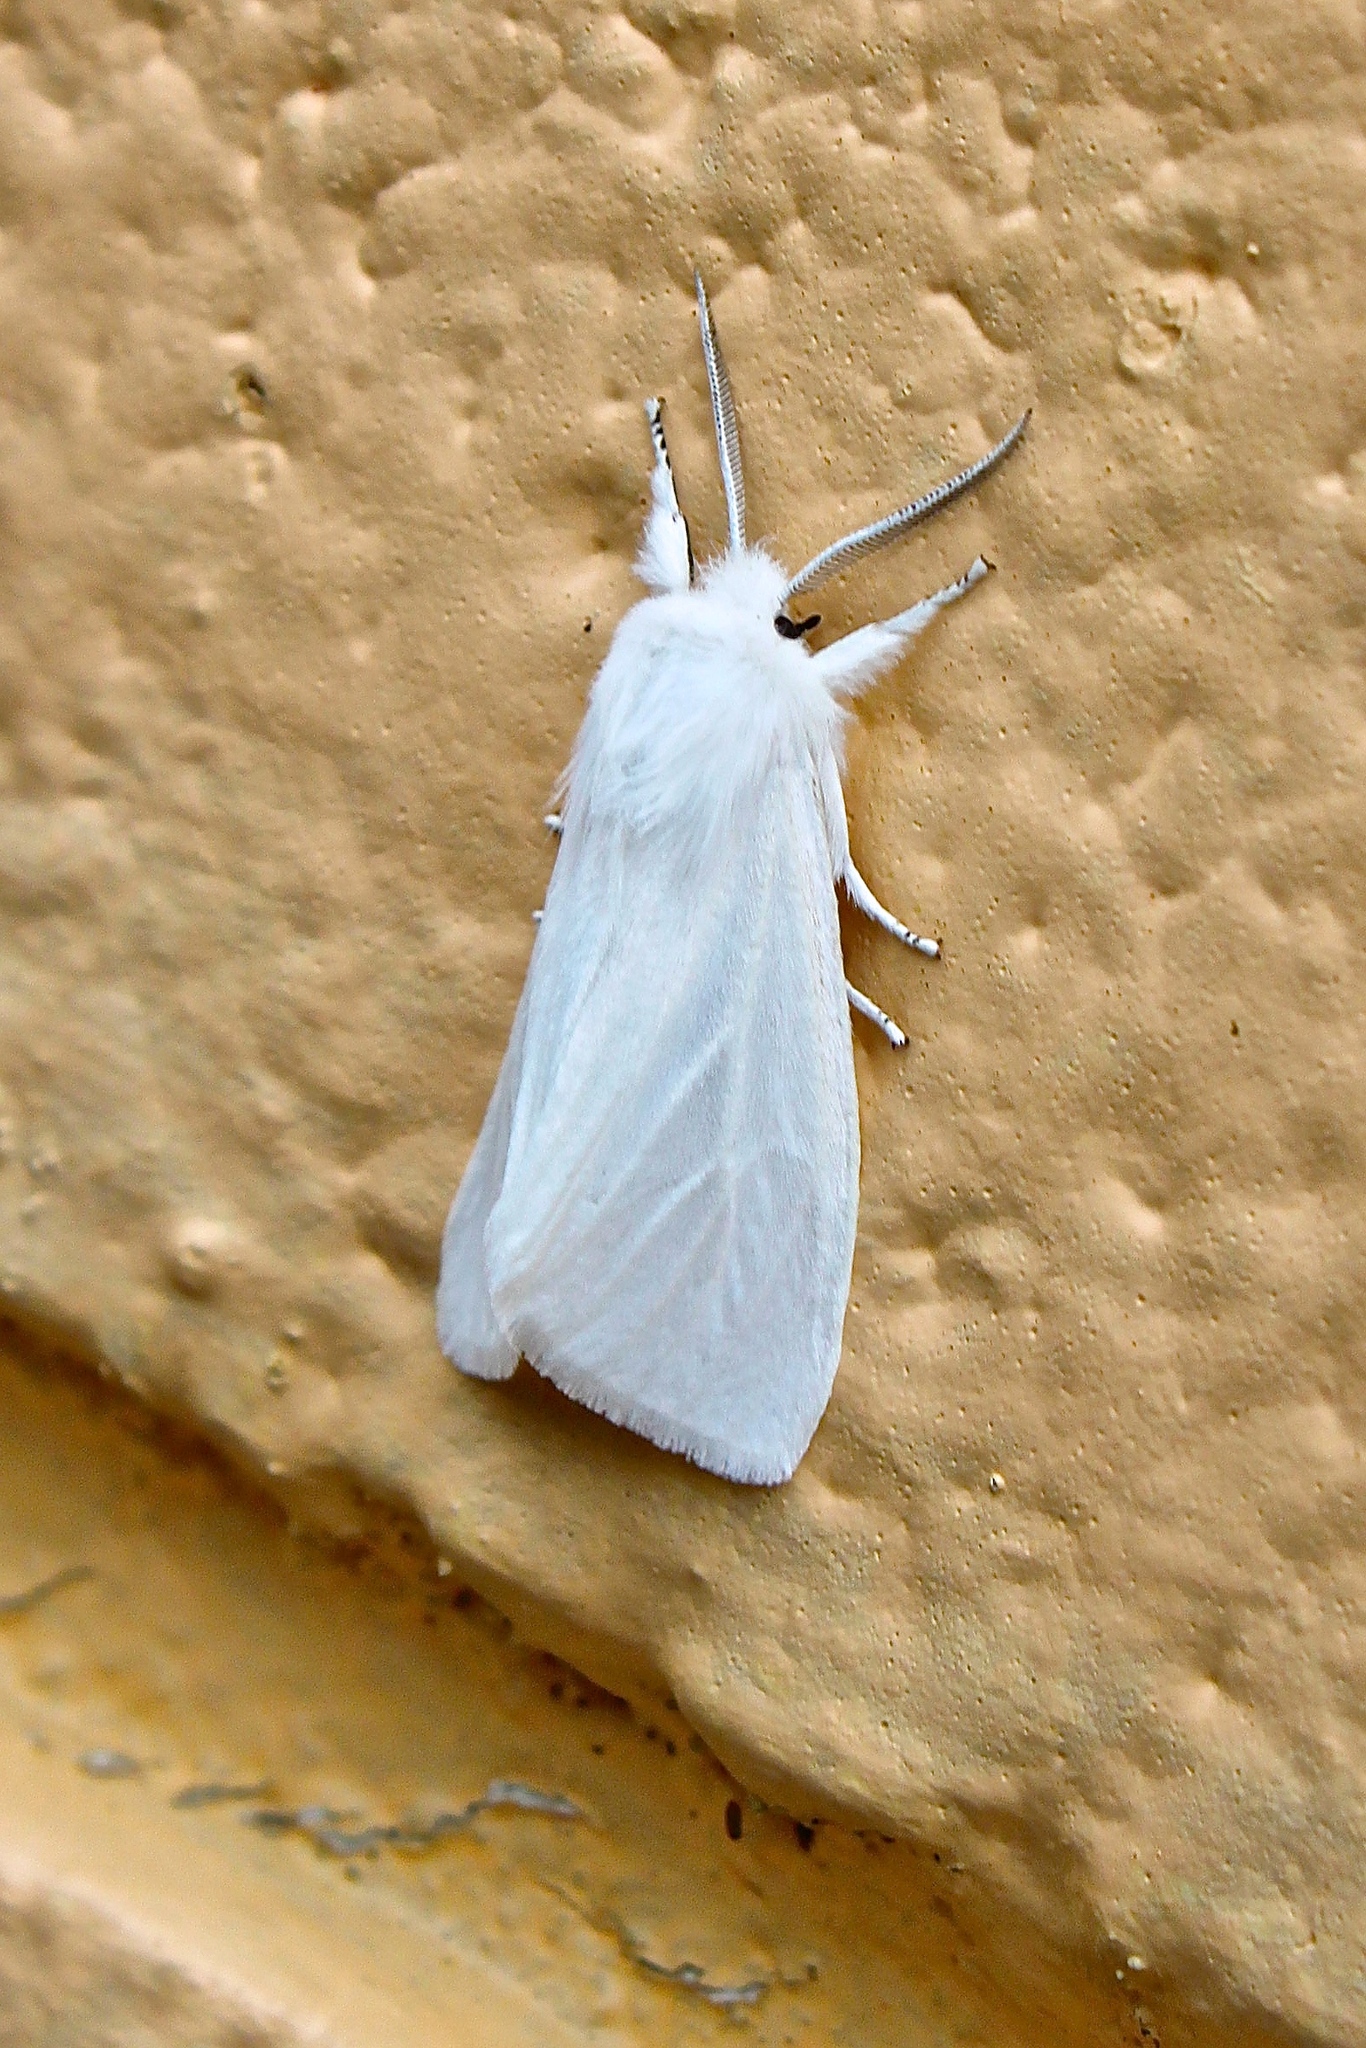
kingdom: Animalia
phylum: Arthropoda
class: Insecta
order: Lepidoptera
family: Erebidae
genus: Spilosoma
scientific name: Spilosoma virginica
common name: Virginia tiger moth
